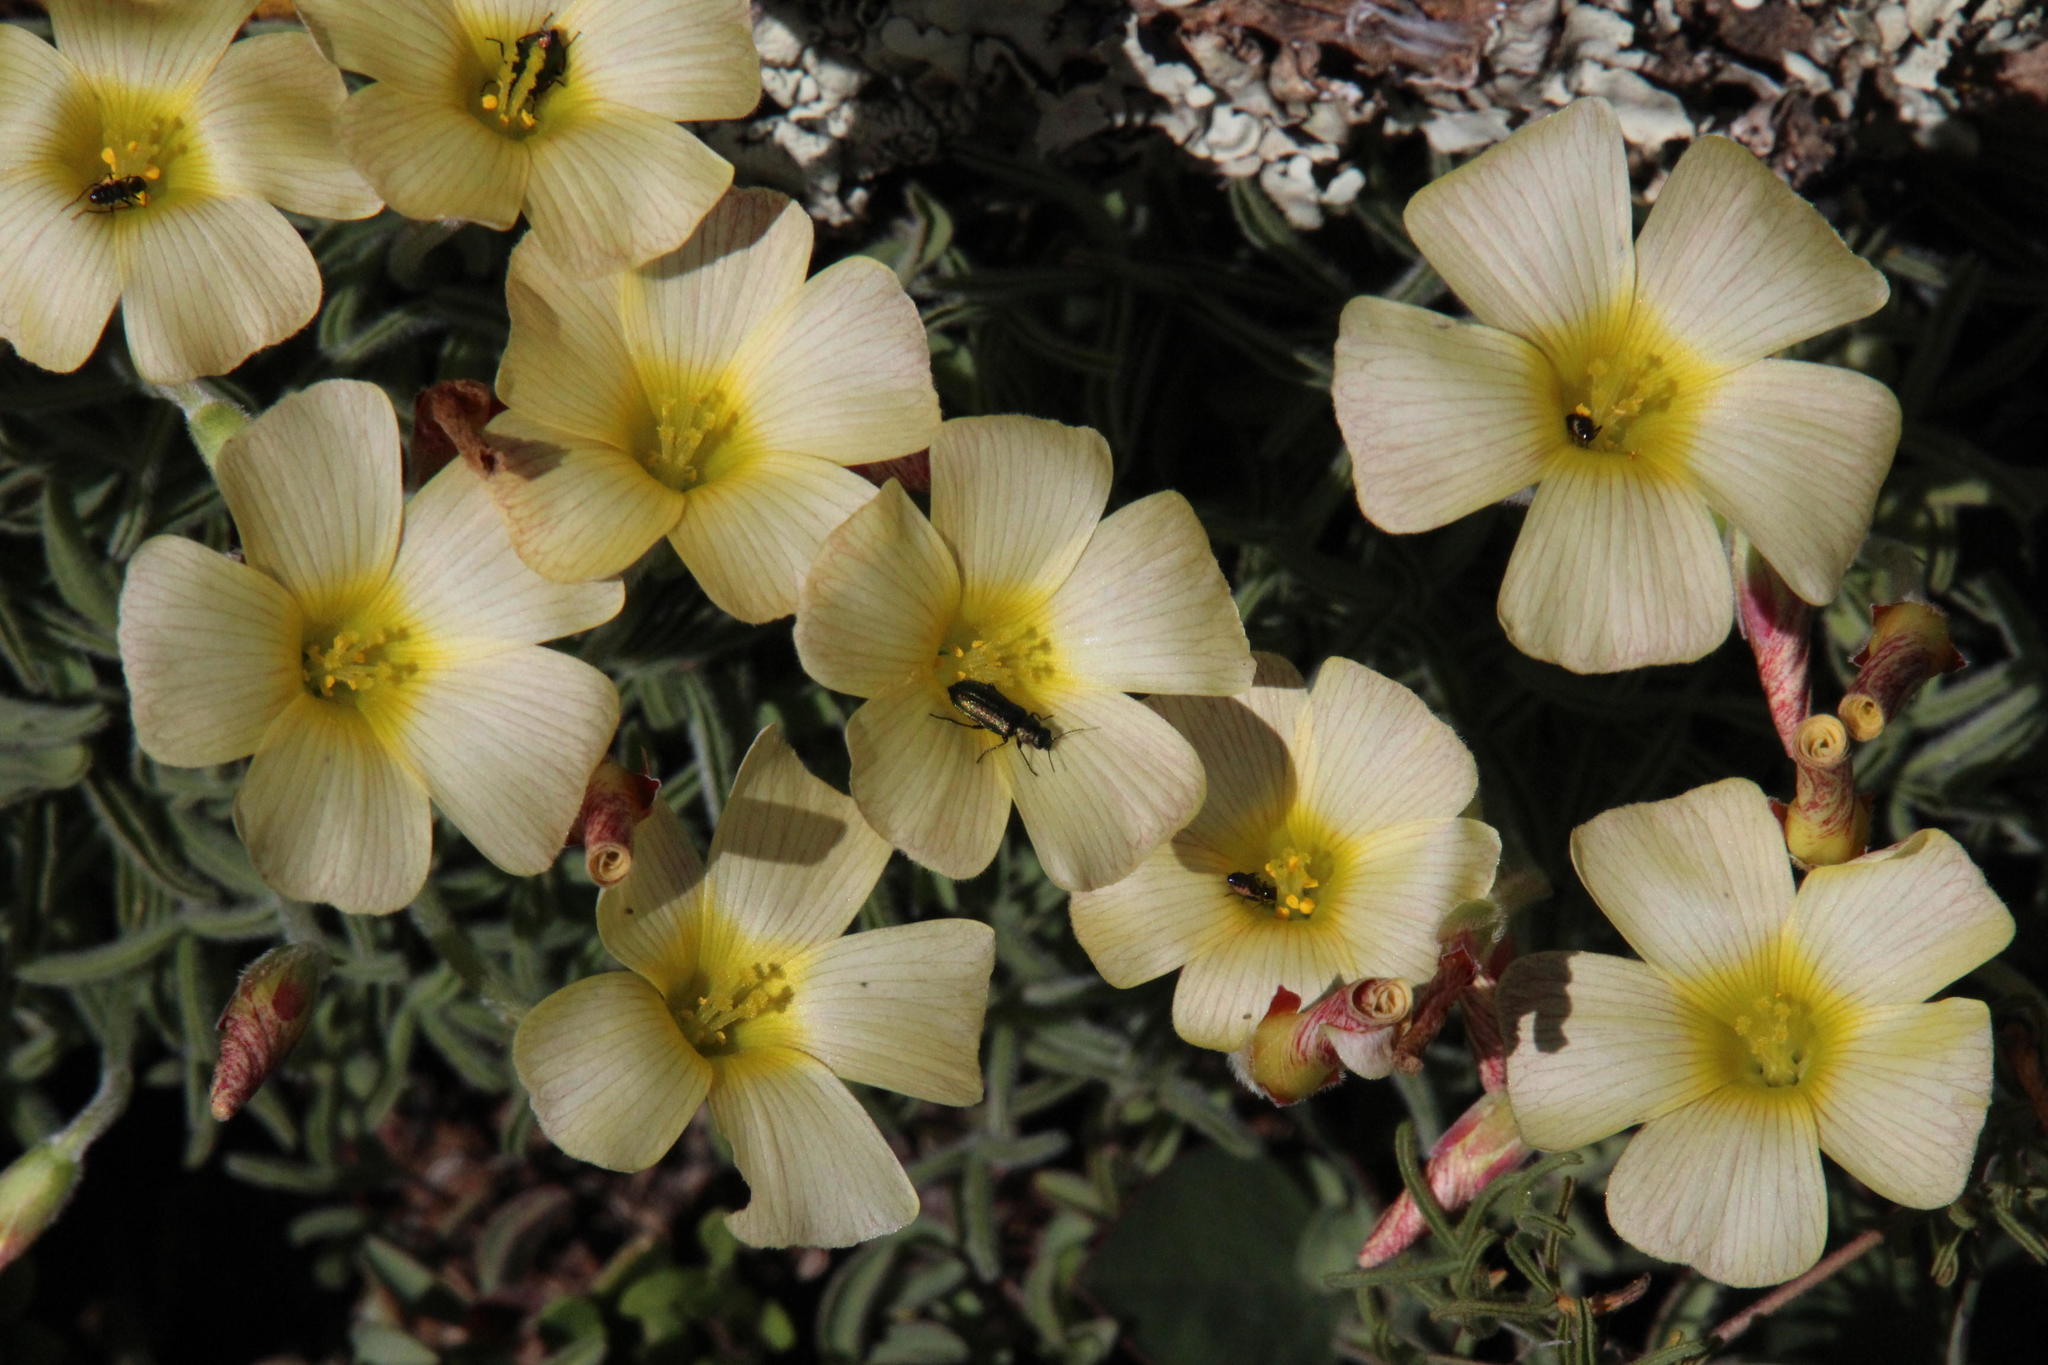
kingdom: Plantae
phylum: Tracheophyta
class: Magnoliopsida
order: Oxalidales
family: Oxalidaceae
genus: Oxalis
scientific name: Oxalis obtusa
